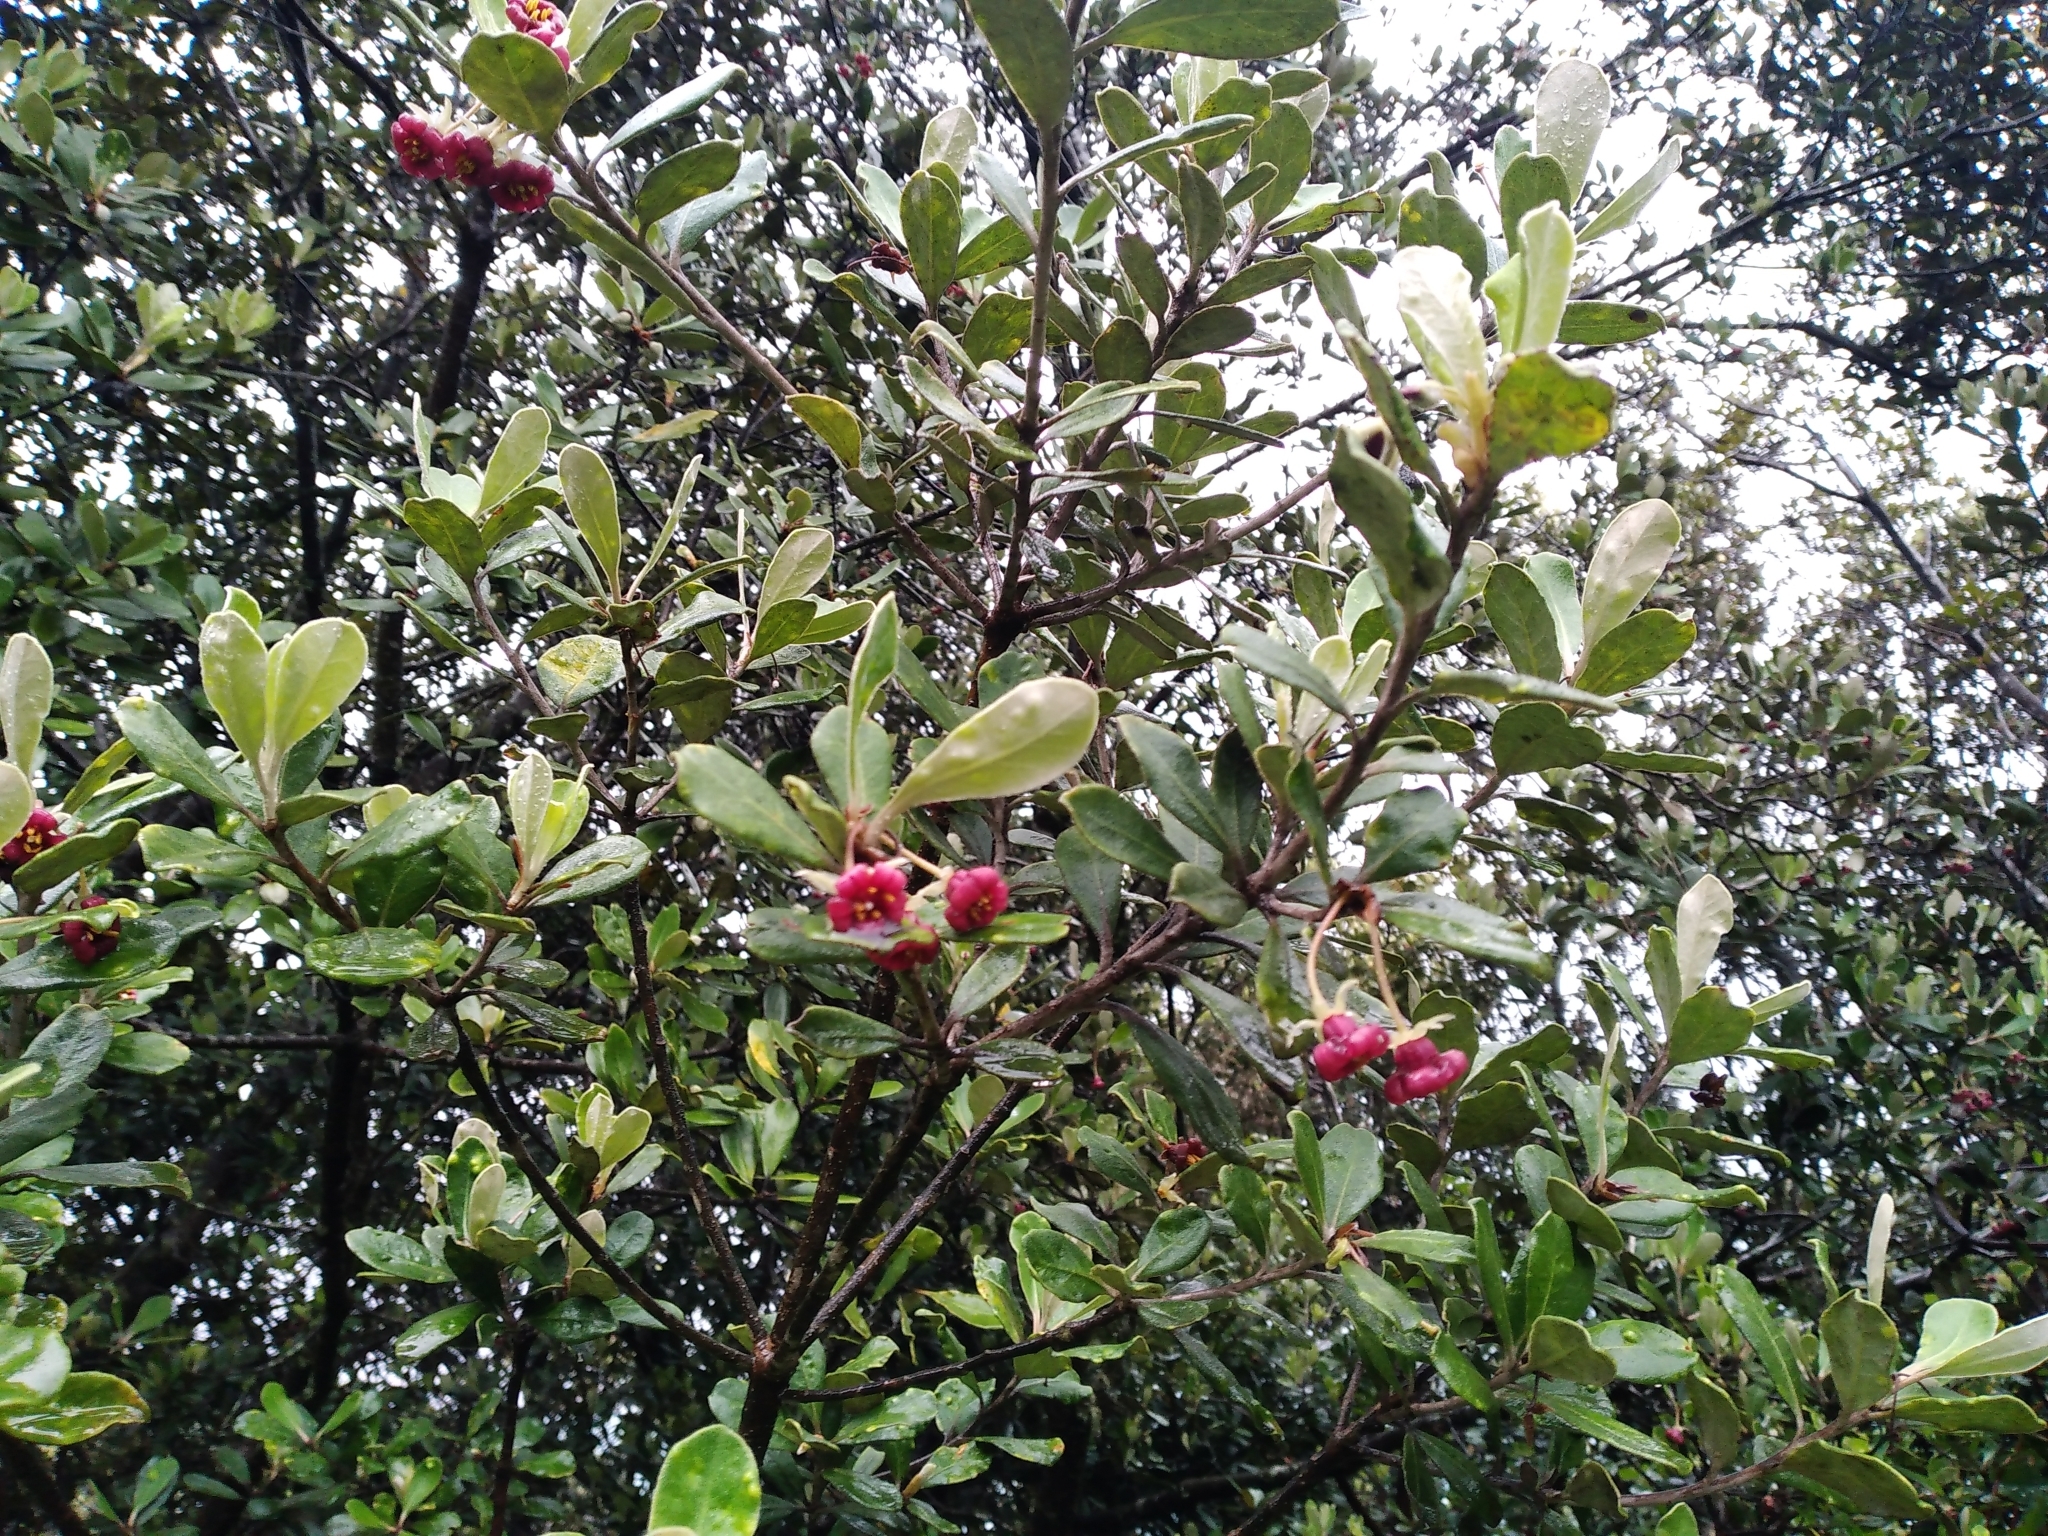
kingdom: Plantae
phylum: Tracheophyta
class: Magnoliopsida
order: Apiales
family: Pittosporaceae
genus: Pittosporum
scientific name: Pittosporum crassifolium
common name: Karo
